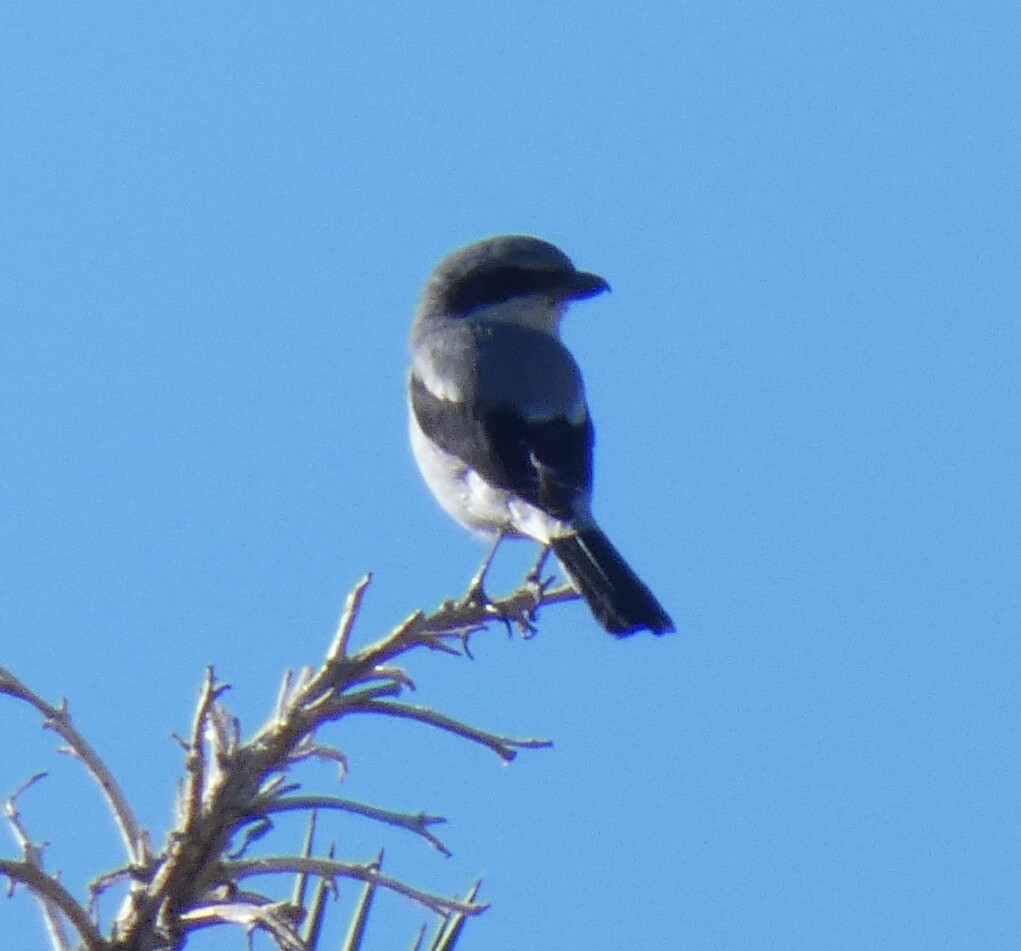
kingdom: Animalia
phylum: Chordata
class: Aves
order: Passeriformes
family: Laniidae
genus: Lanius
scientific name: Lanius ludovicianus
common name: Loggerhead shrike
